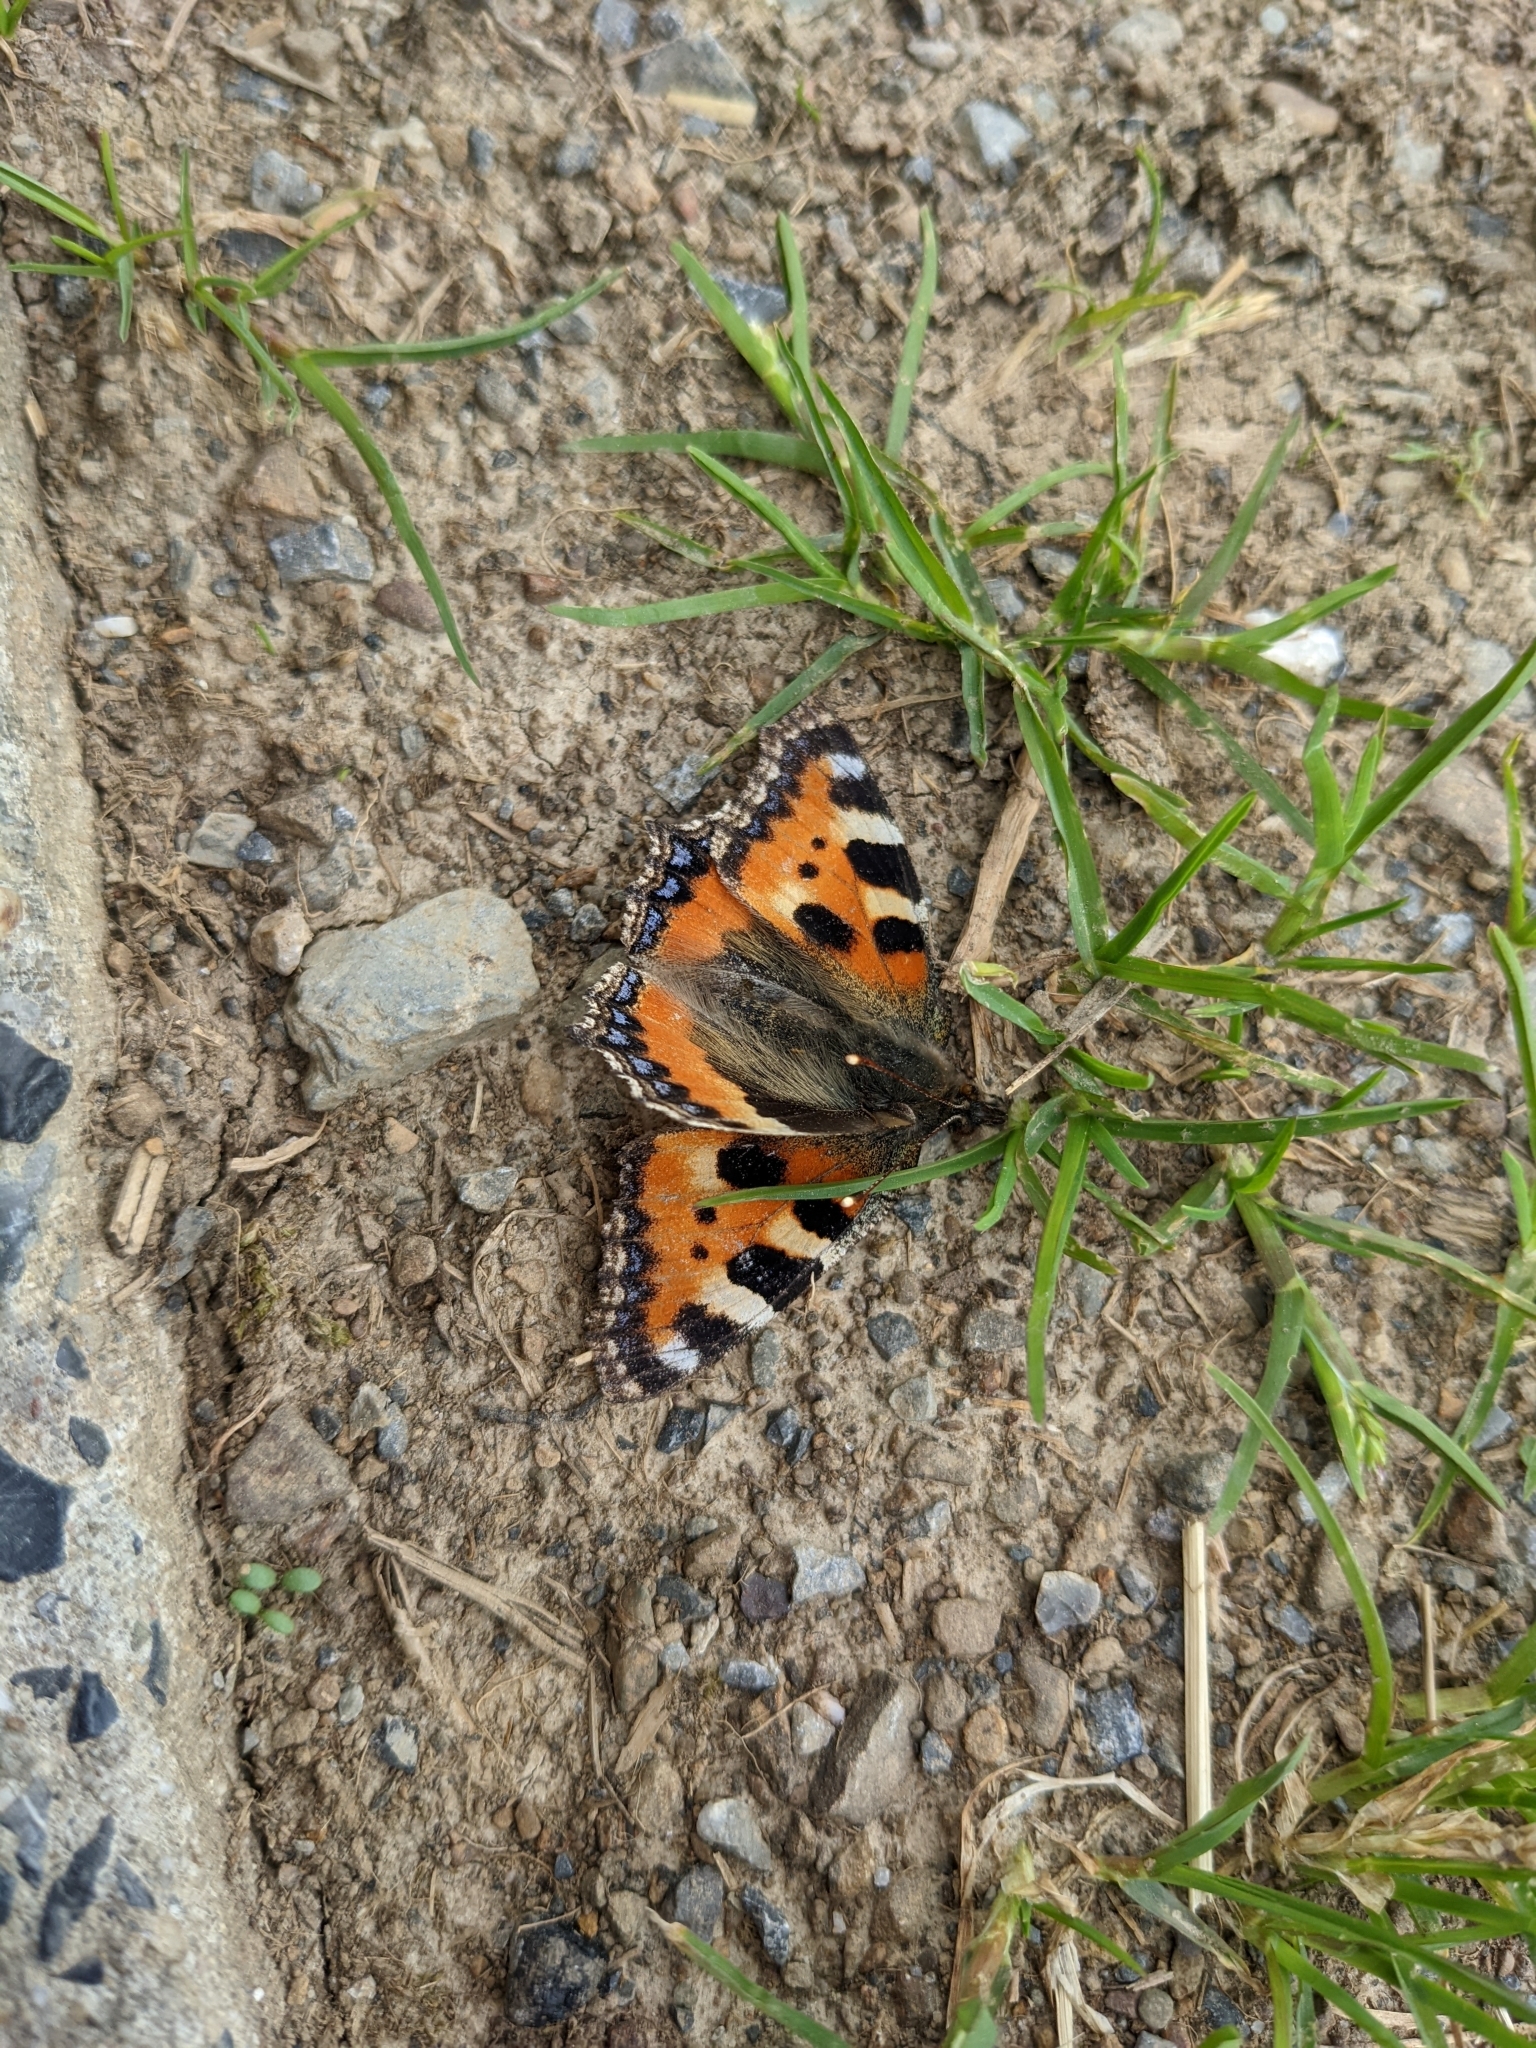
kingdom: Animalia
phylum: Arthropoda
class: Insecta
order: Lepidoptera
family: Nymphalidae
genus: Aglais
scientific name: Aglais urticae
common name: Small tortoiseshell
